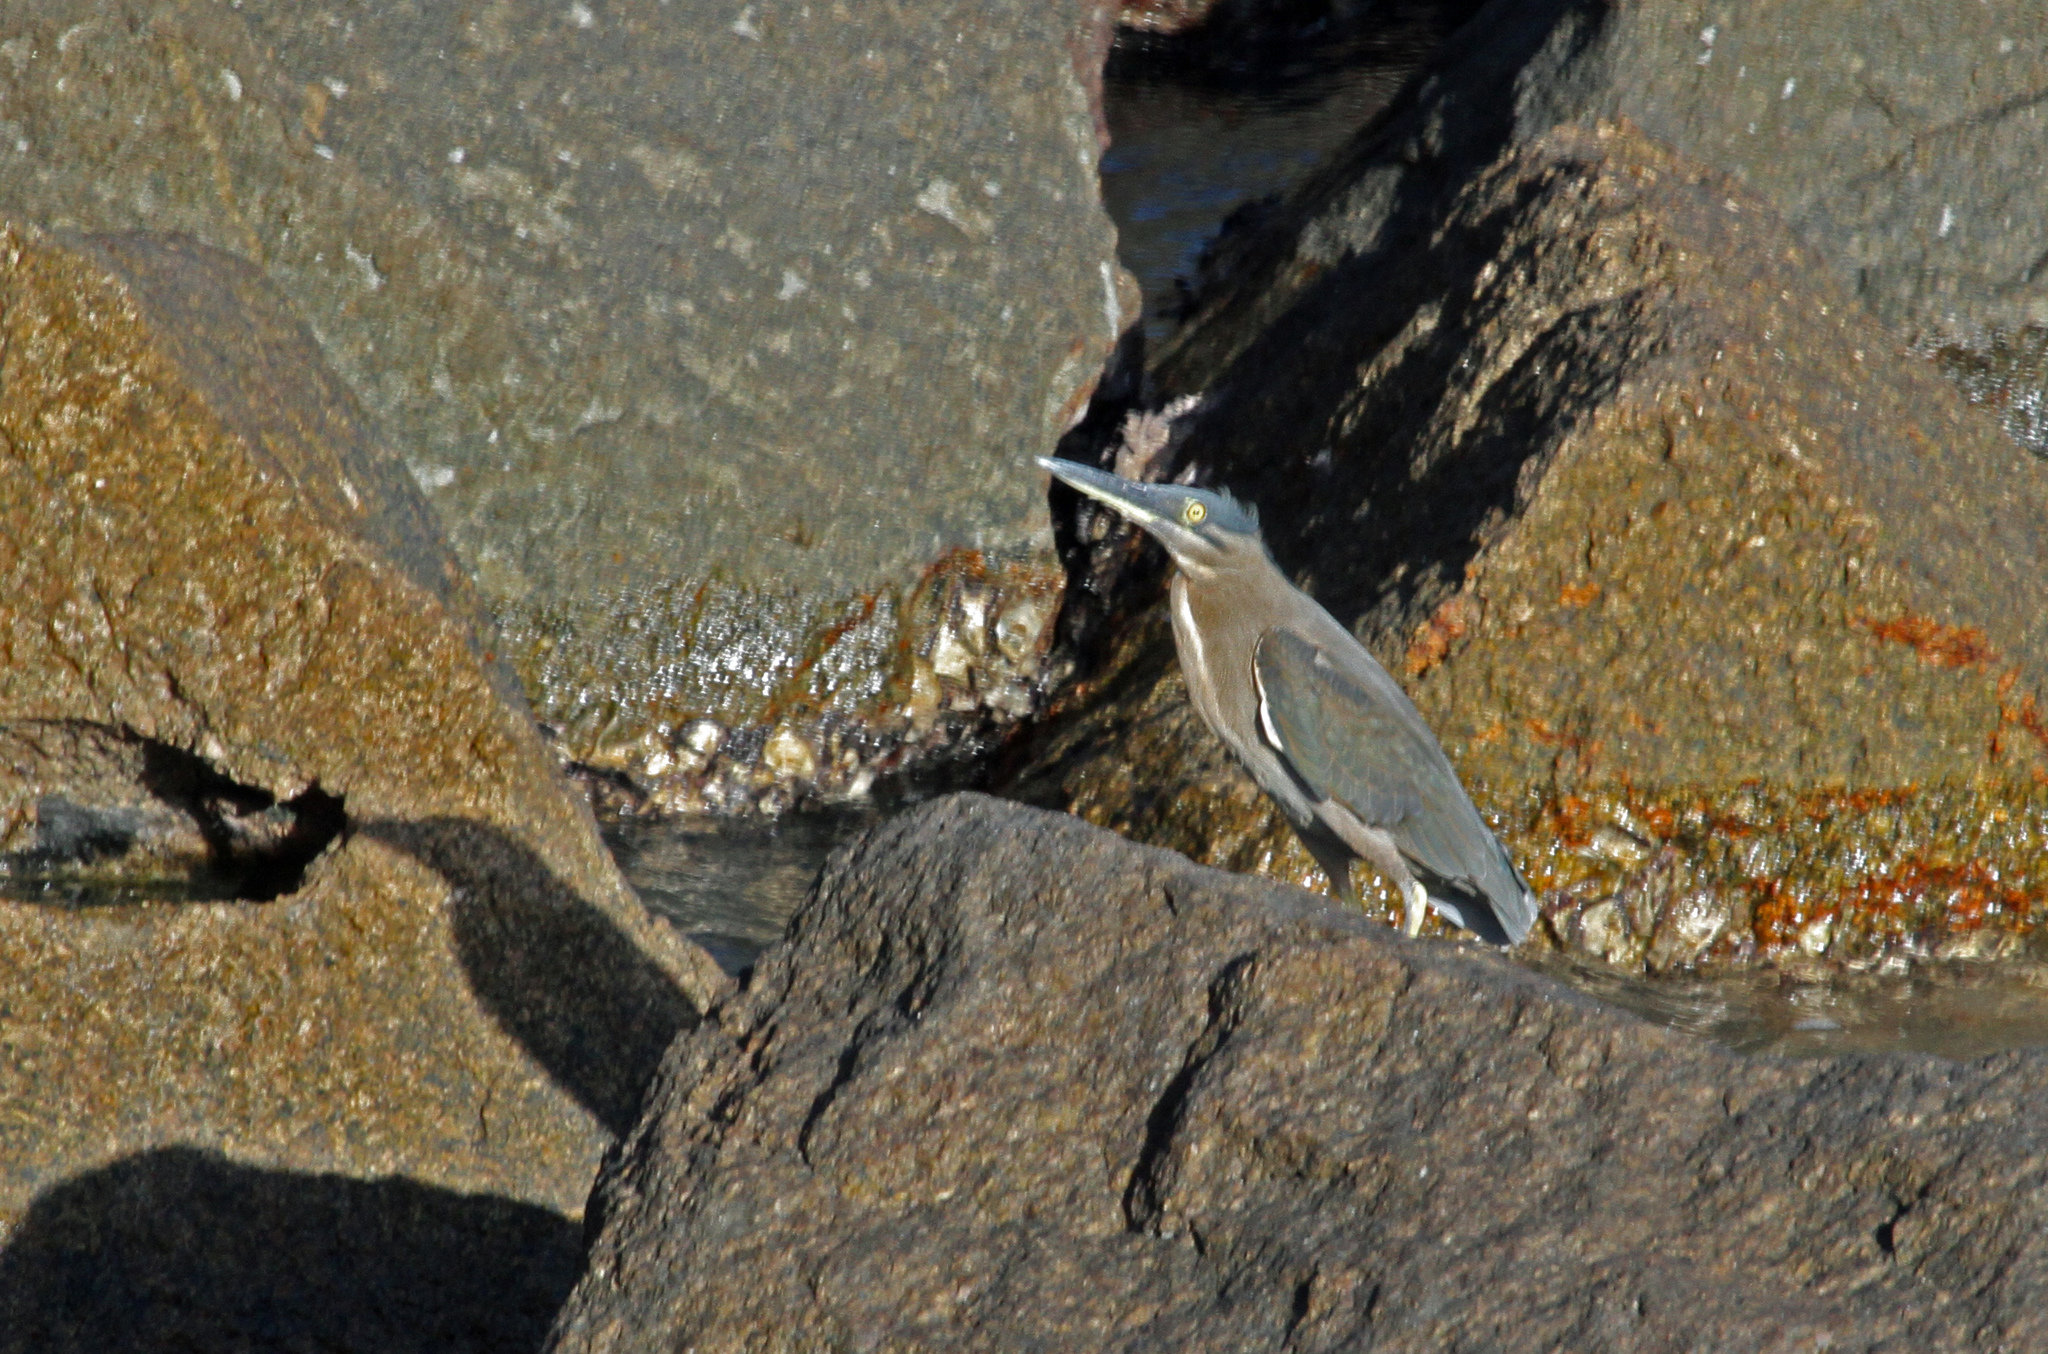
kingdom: Animalia
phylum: Chordata
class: Aves
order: Pelecaniformes
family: Ardeidae
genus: Butorides
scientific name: Butorides striata
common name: Striated heron
